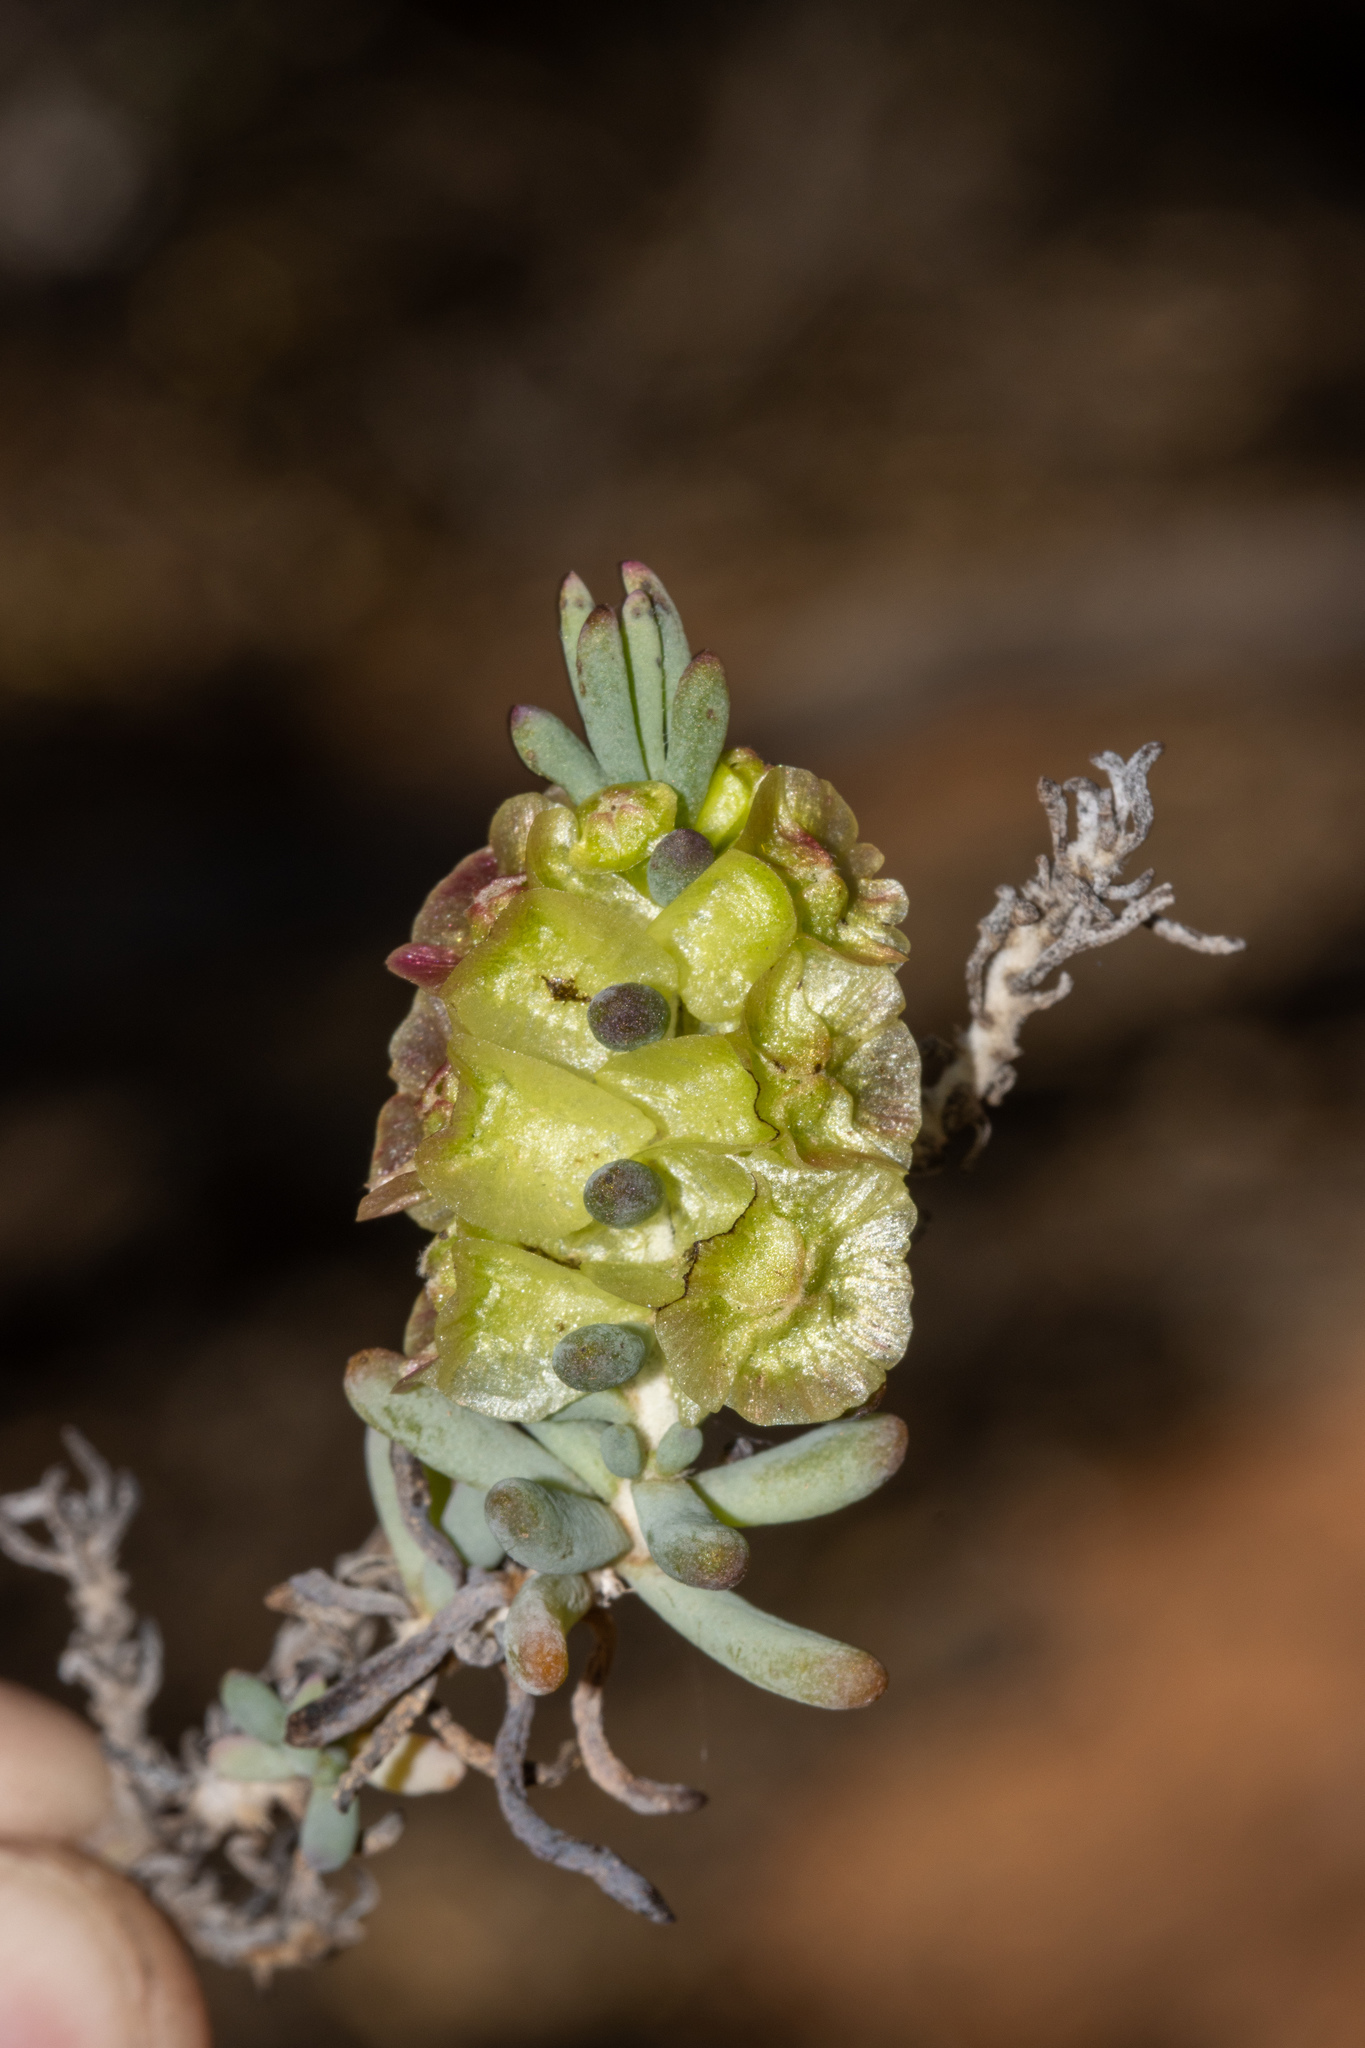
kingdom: Plantae
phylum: Tracheophyta
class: Magnoliopsida
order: Caryophyllales
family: Amaranthaceae
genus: Maireana
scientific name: Maireana erioclada
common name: Rosy bluebush
